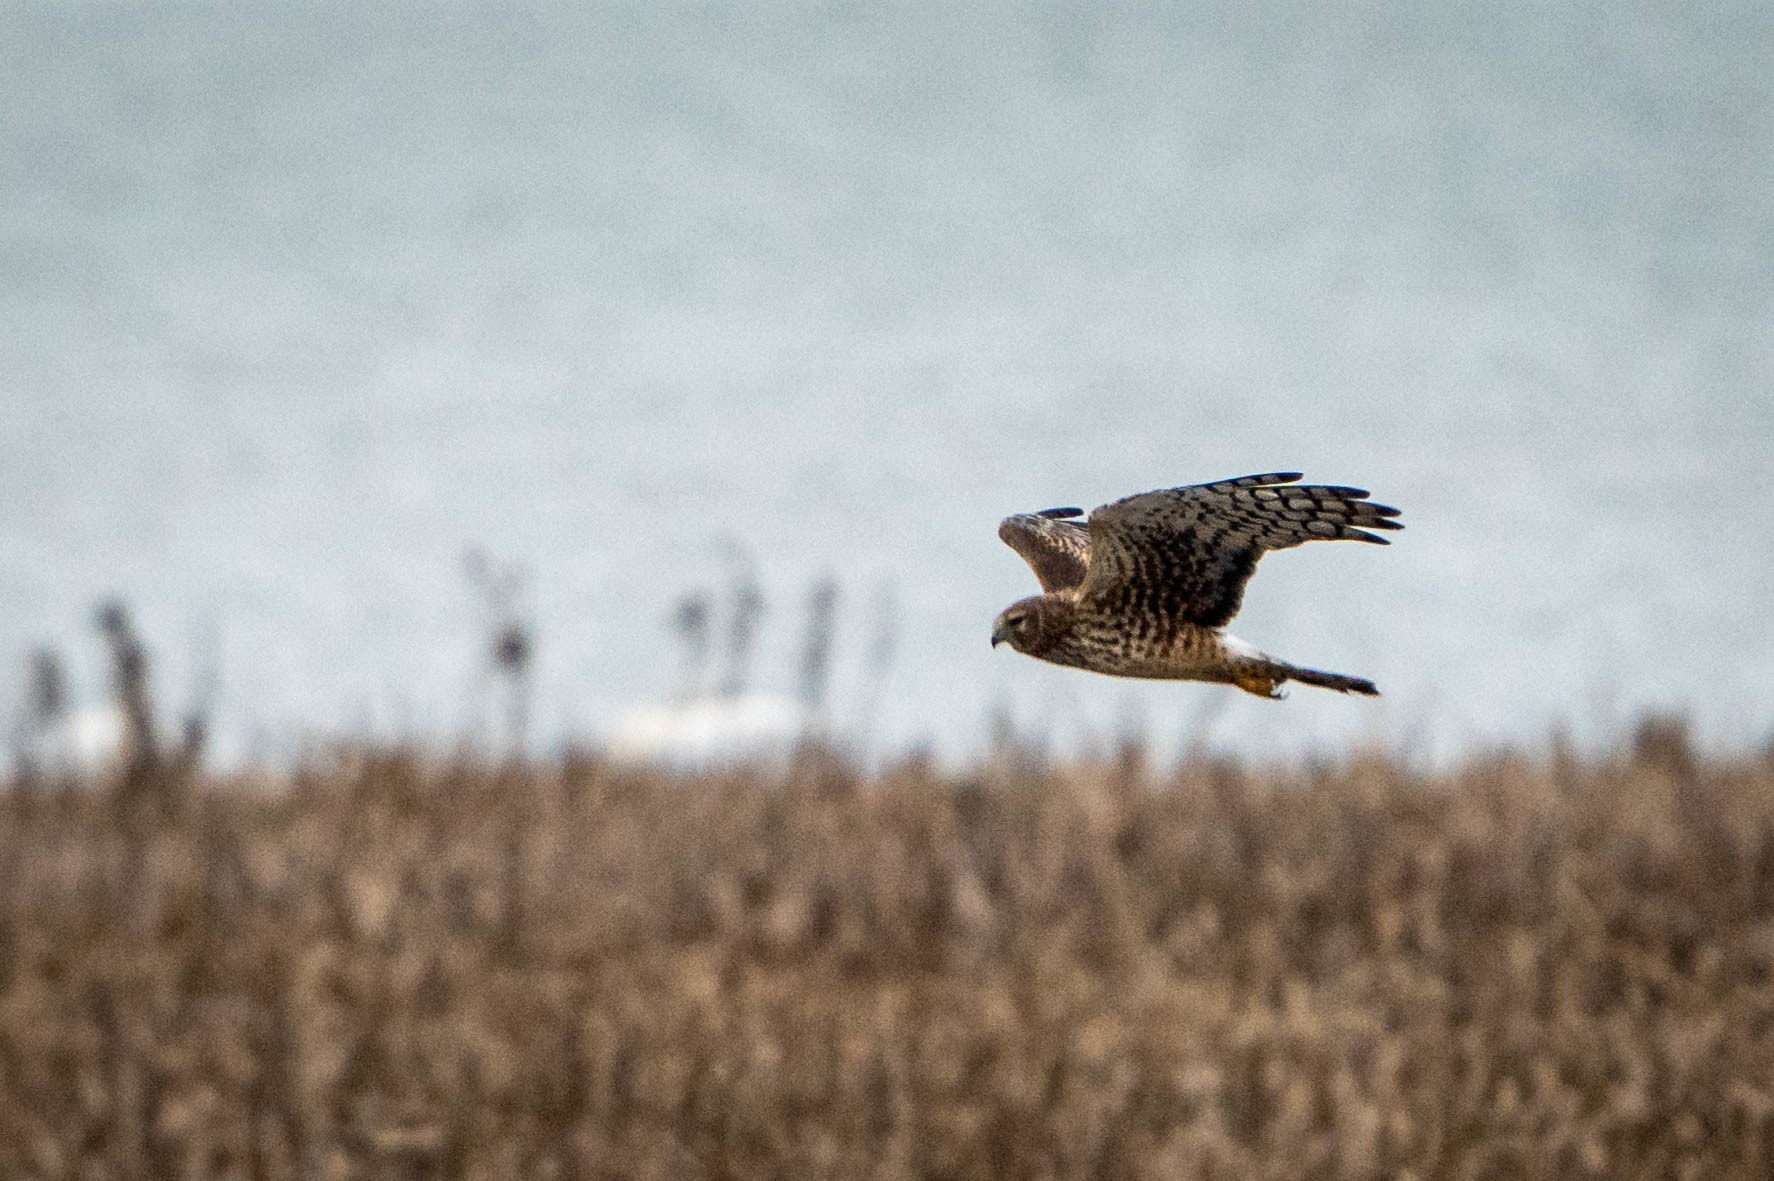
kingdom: Animalia
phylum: Chordata
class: Aves
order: Accipitriformes
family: Accipitridae
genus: Circus
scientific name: Circus cyaneus
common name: Hen harrier
